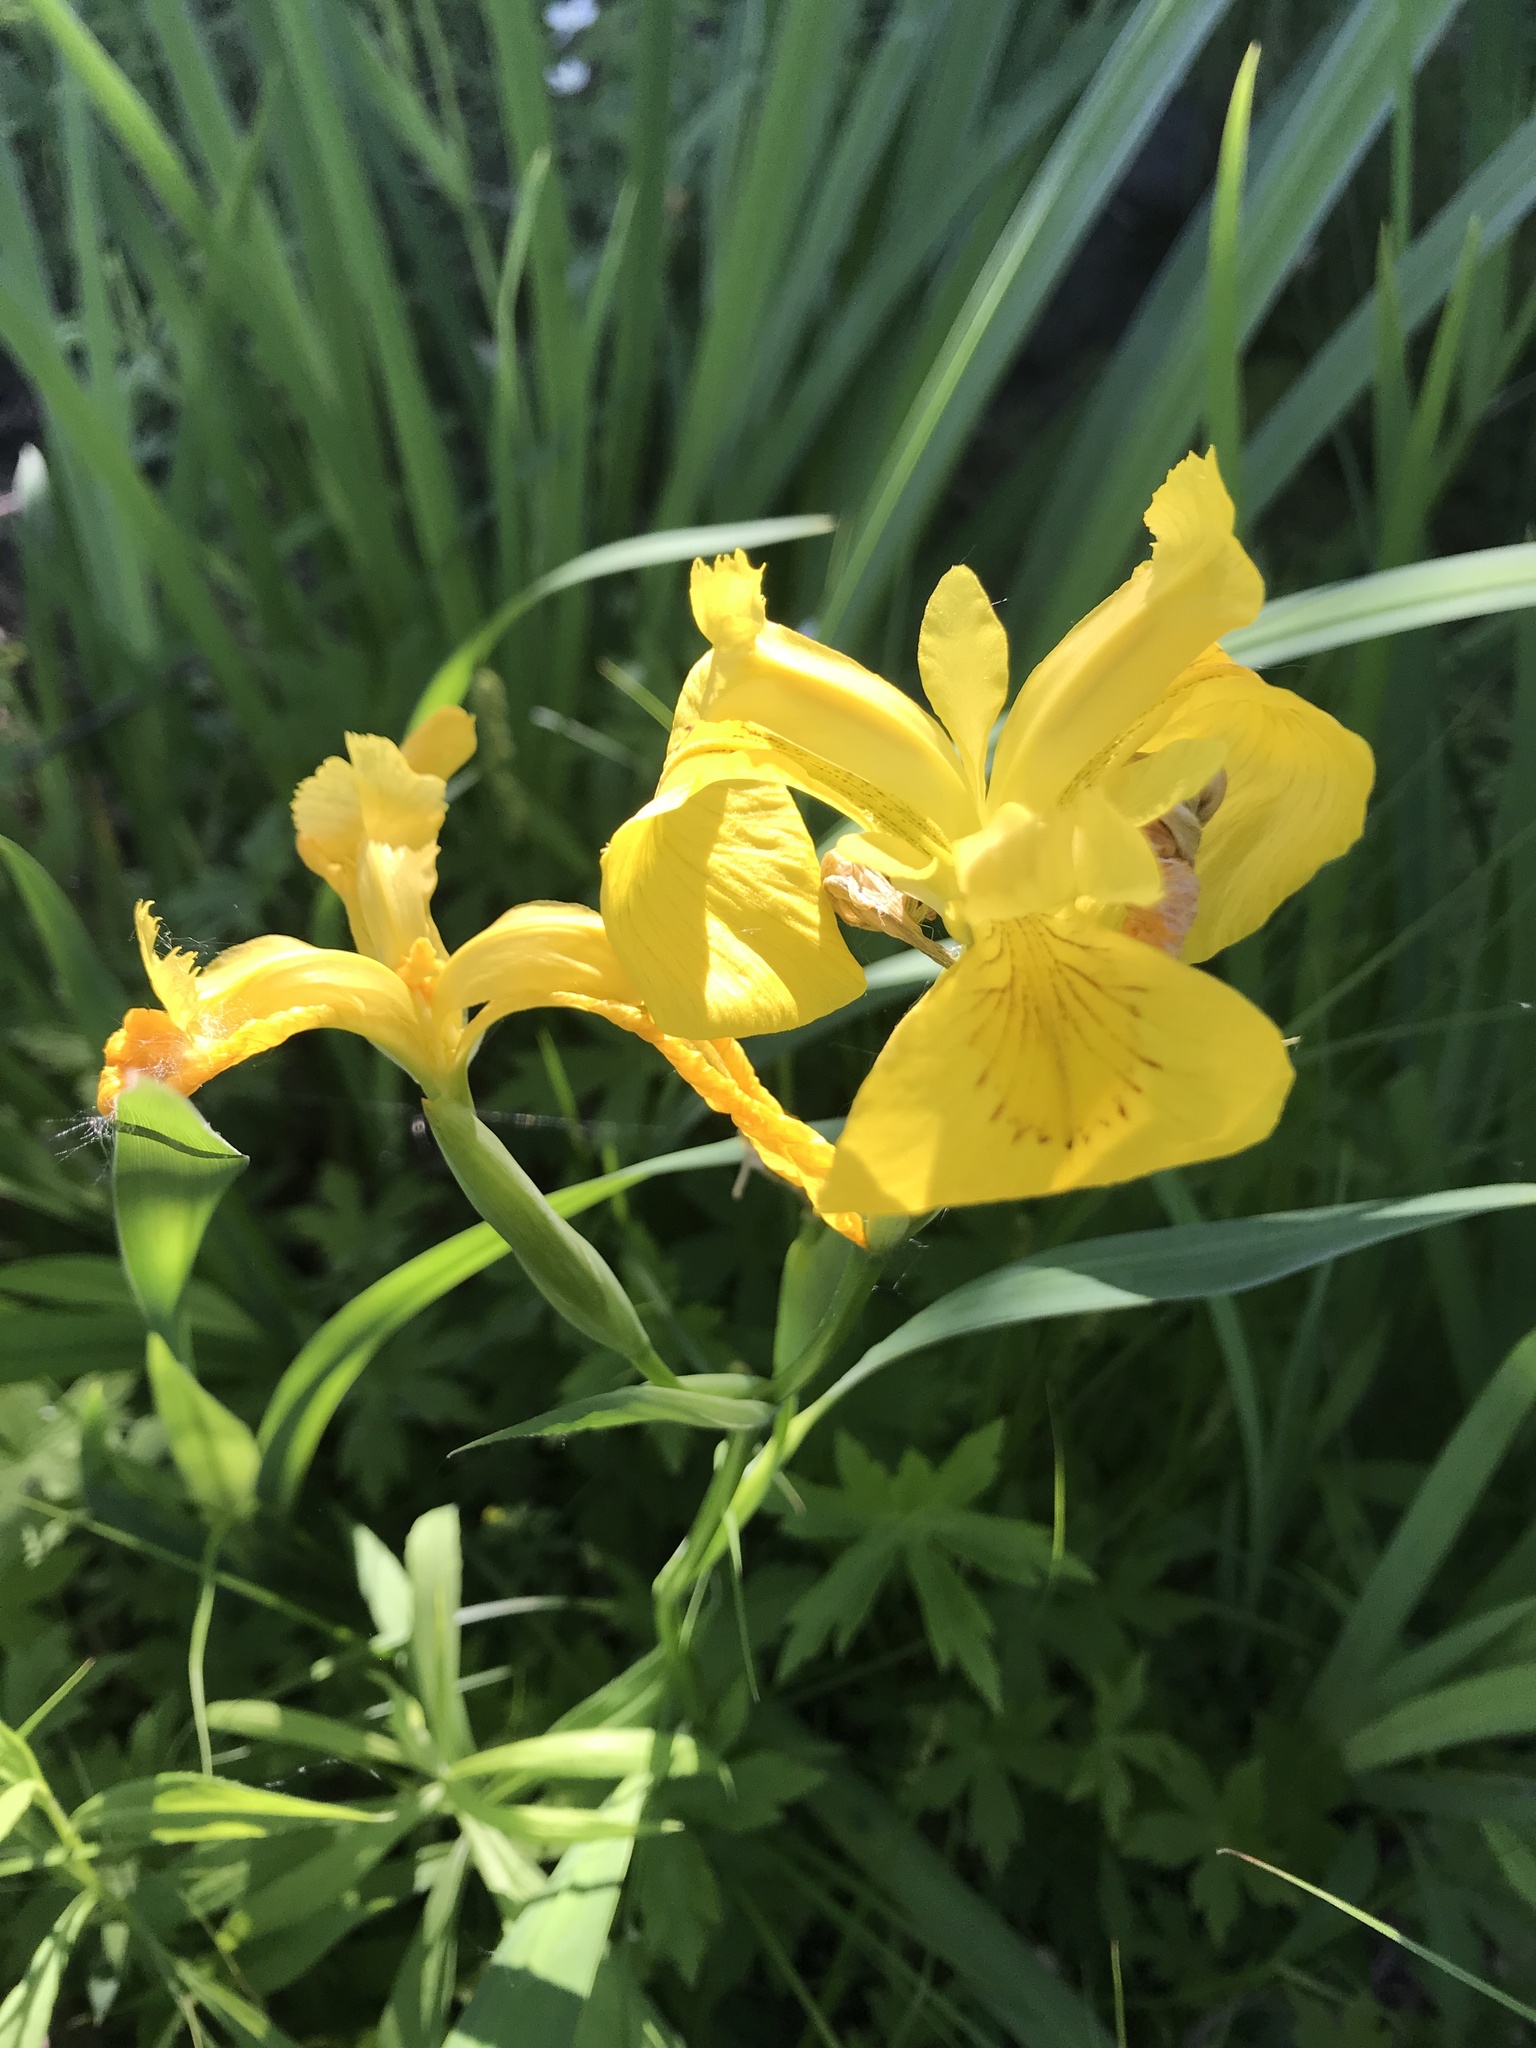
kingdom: Plantae
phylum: Tracheophyta
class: Liliopsida
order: Asparagales
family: Iridaceae
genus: Iris
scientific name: Iris pseudacorus
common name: Yellow flag
